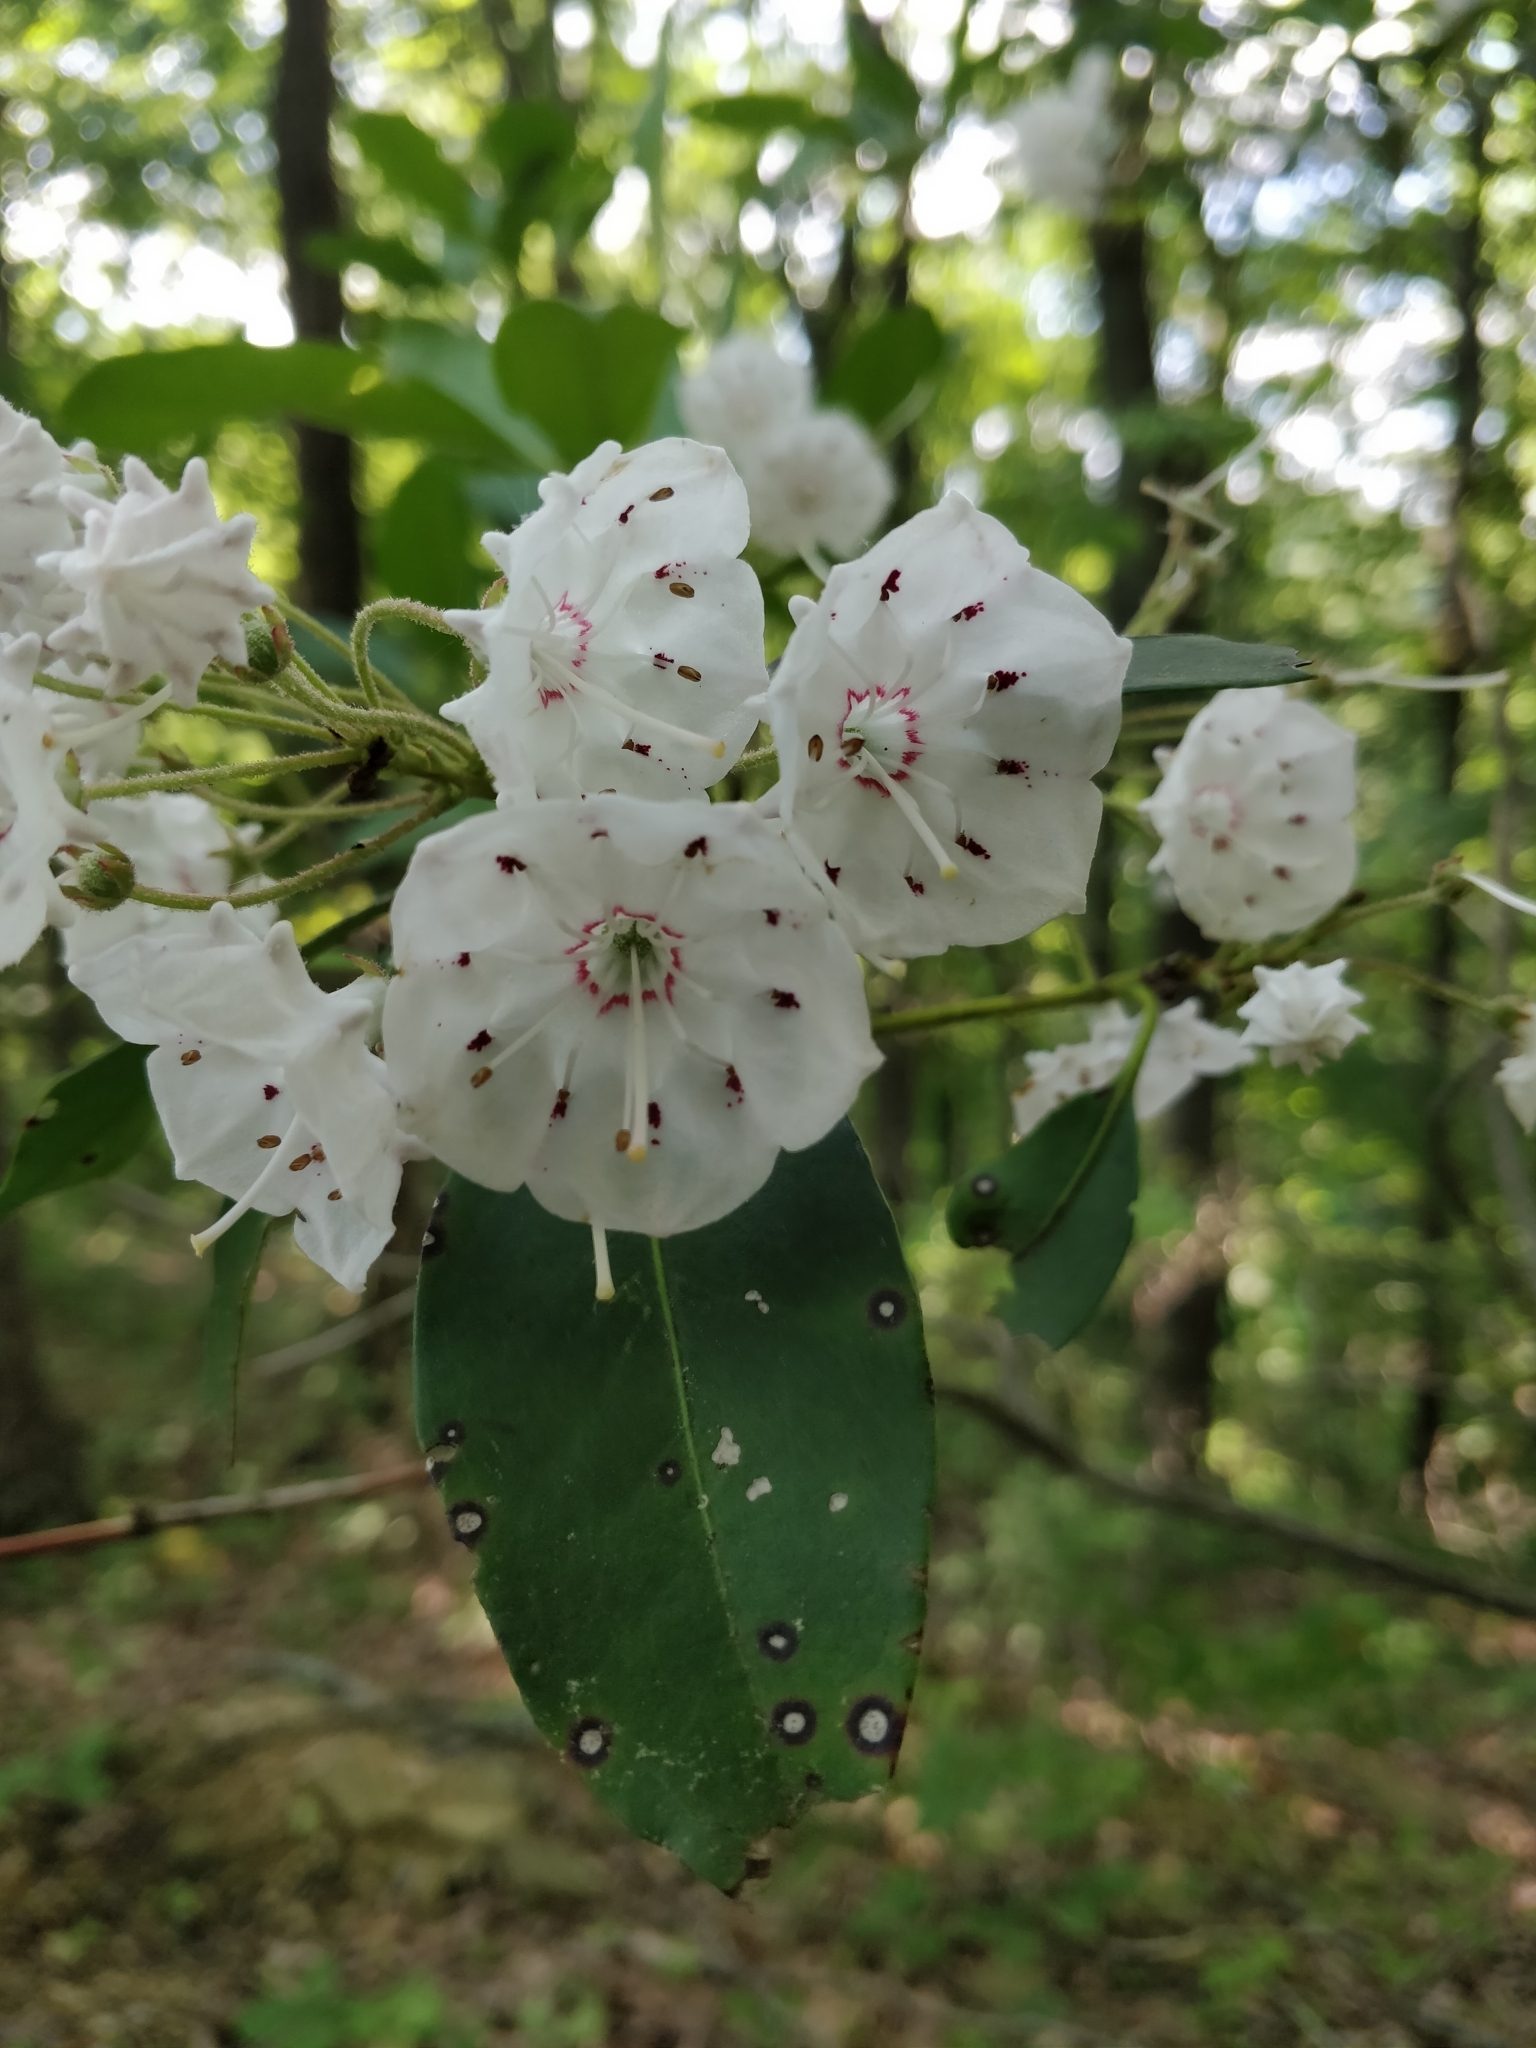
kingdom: Plantae
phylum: Tracheophyta
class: Magnoliopsida
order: Ericales
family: Ericaceae
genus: Kalmia
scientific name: Kalmia latifolia
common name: Mountain-laurel
